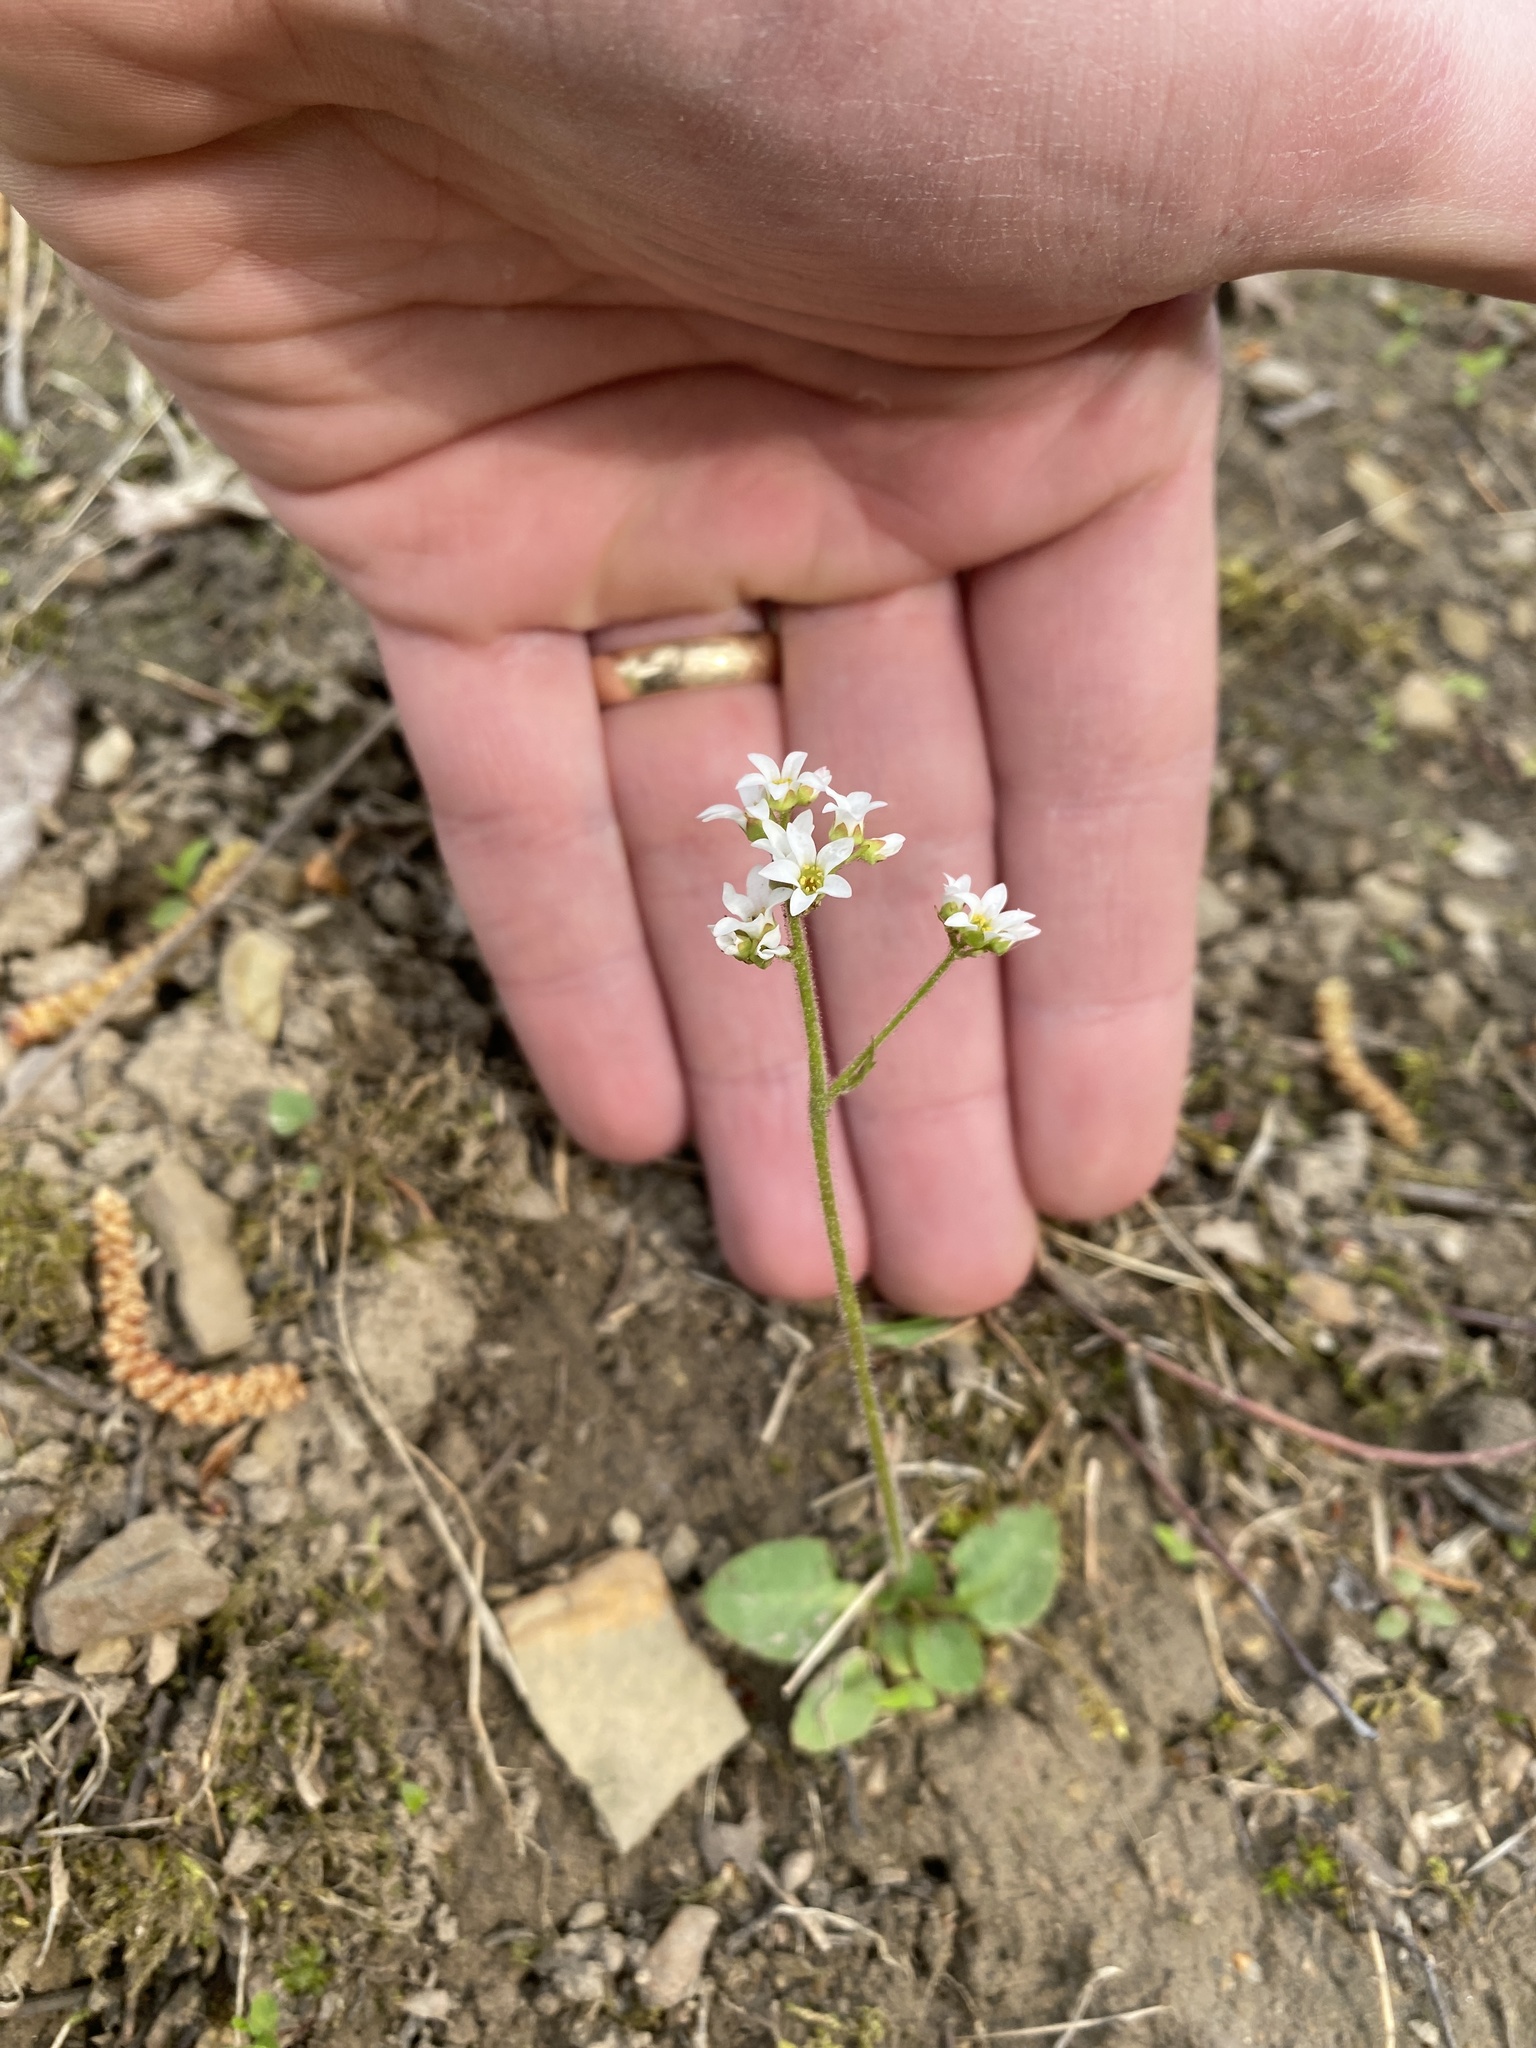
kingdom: Plantae
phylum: Tracheophyta
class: Magnoliopsida
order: Saxifragales
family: Saxifragaceae
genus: Micranthes
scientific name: Micranthes virginiensis
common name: Early saxifrage
